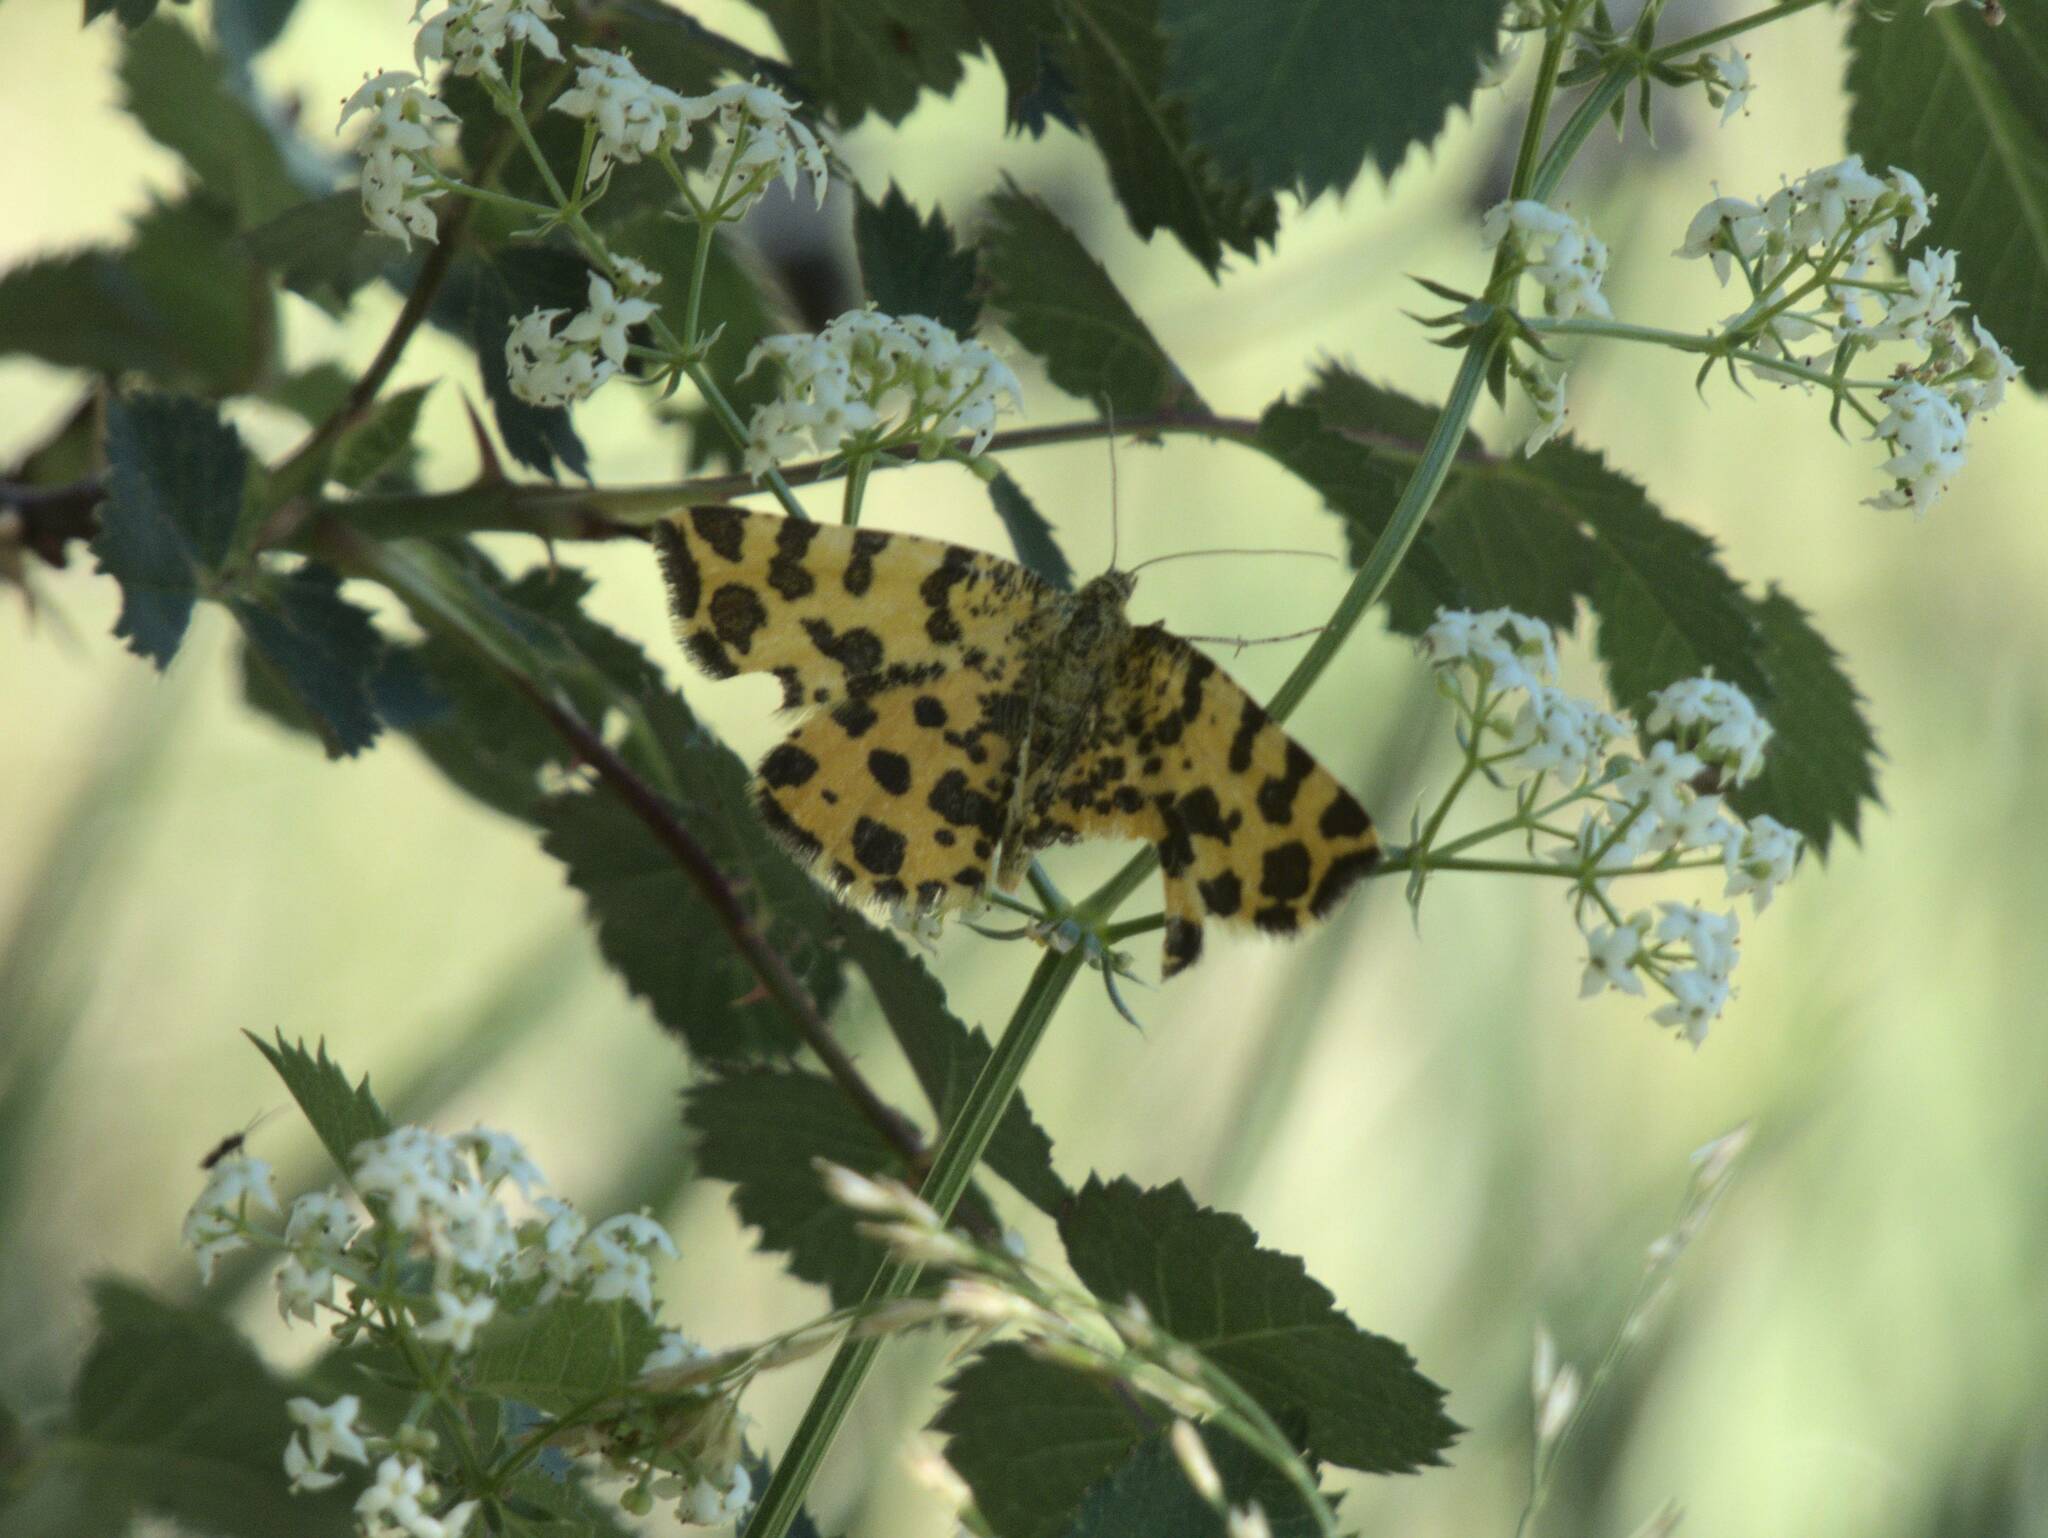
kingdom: Animalia
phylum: Arthropoda
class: Insecta
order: Lepidoptera
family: Geometridae
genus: Pseudopanthera
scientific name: Pseudopanthera macularia
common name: Speckled yellow
